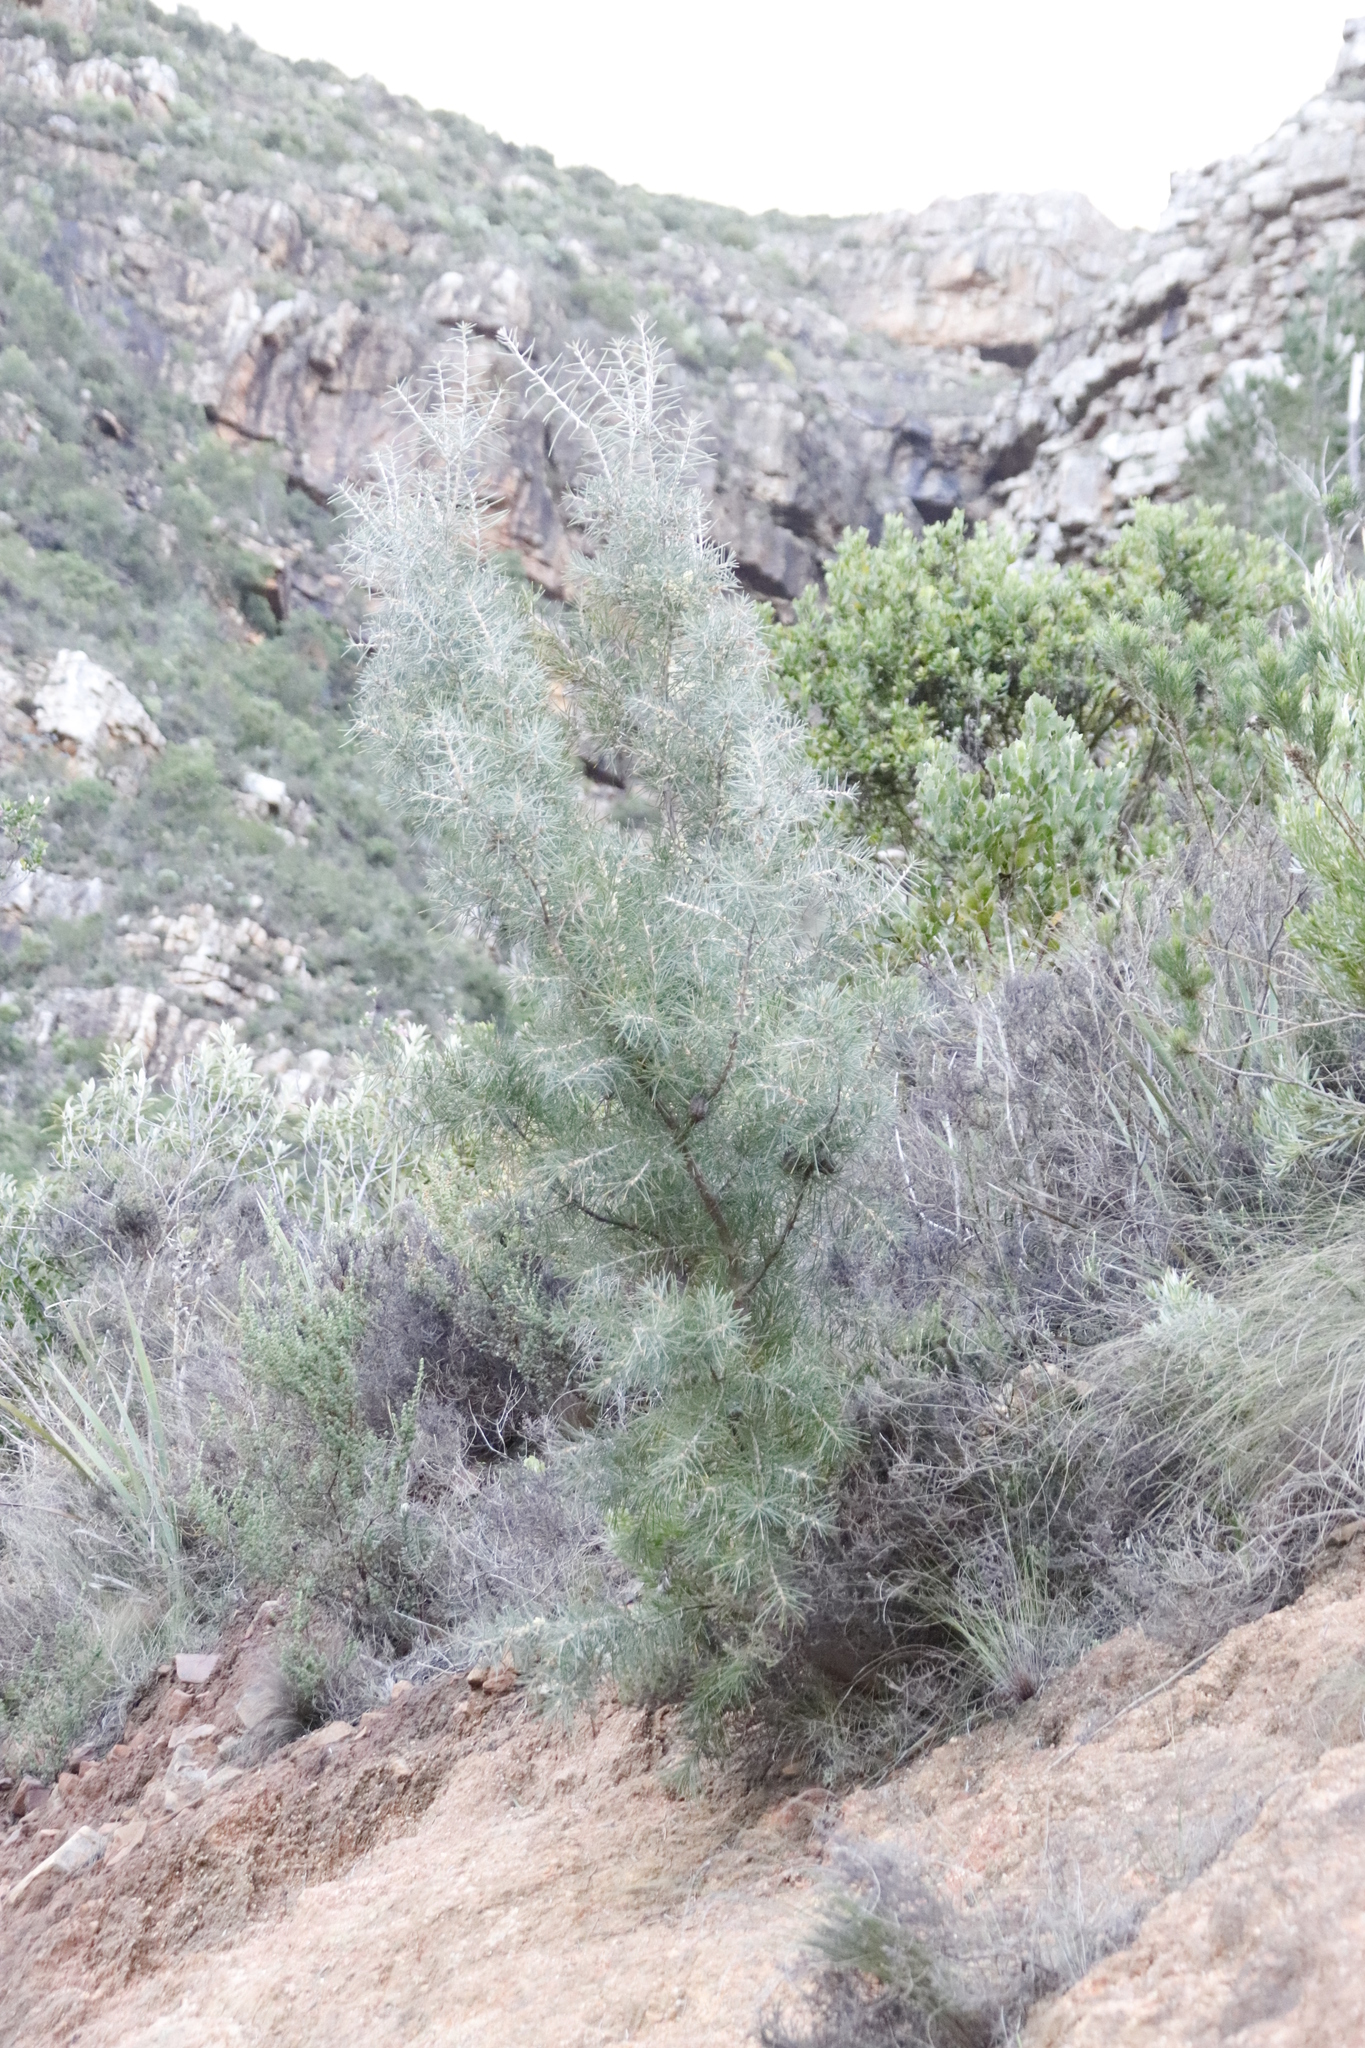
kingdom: Plantae
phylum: Tracheophyta
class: Magnoliopsida
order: Proteales
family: Proteaceae
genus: Hakea
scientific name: Hakea gibbosa
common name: Rock hakea
